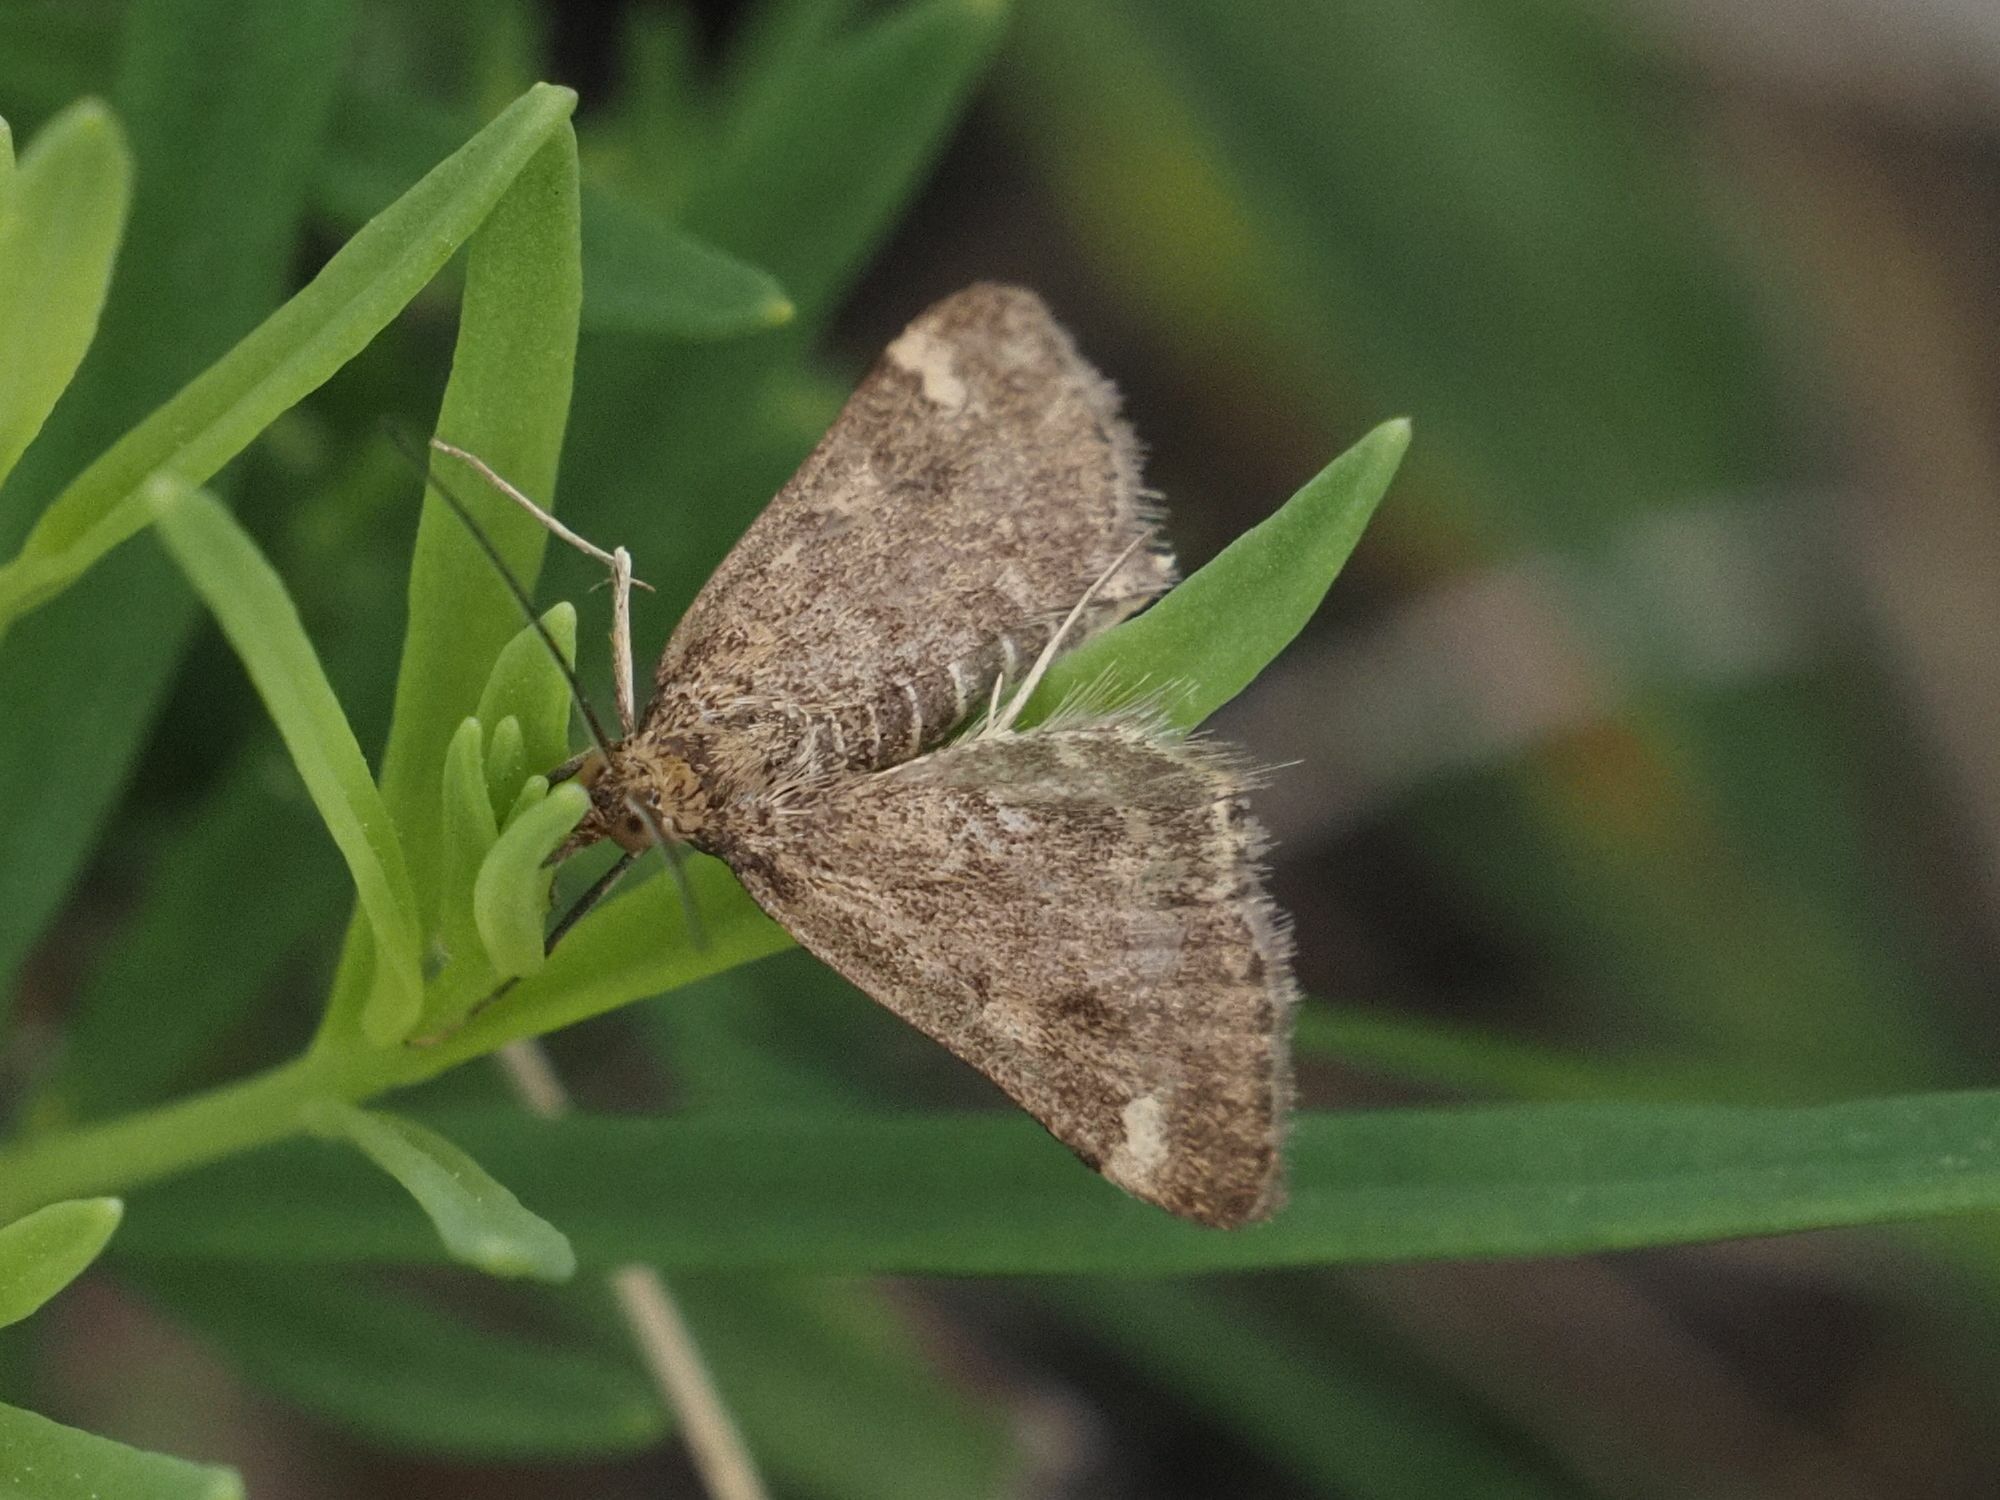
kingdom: Animalia
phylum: Arthropoda
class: Insecta
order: Lepidoptera
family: Crambidae
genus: Pyrausta
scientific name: Pyrausta despicata
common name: Straw-barred pearl
